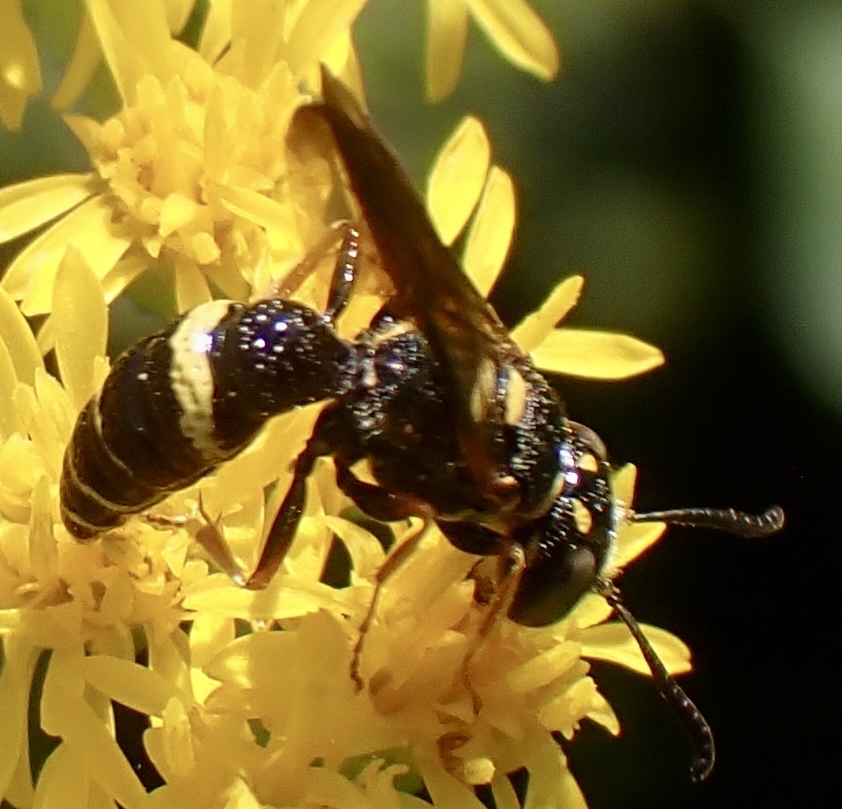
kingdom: Animalia
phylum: Arthropoda
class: Insecta
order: Hymenoptera
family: Crabronidae
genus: Philanthus
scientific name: Philanthus gibbosus
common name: Humped beewolf
